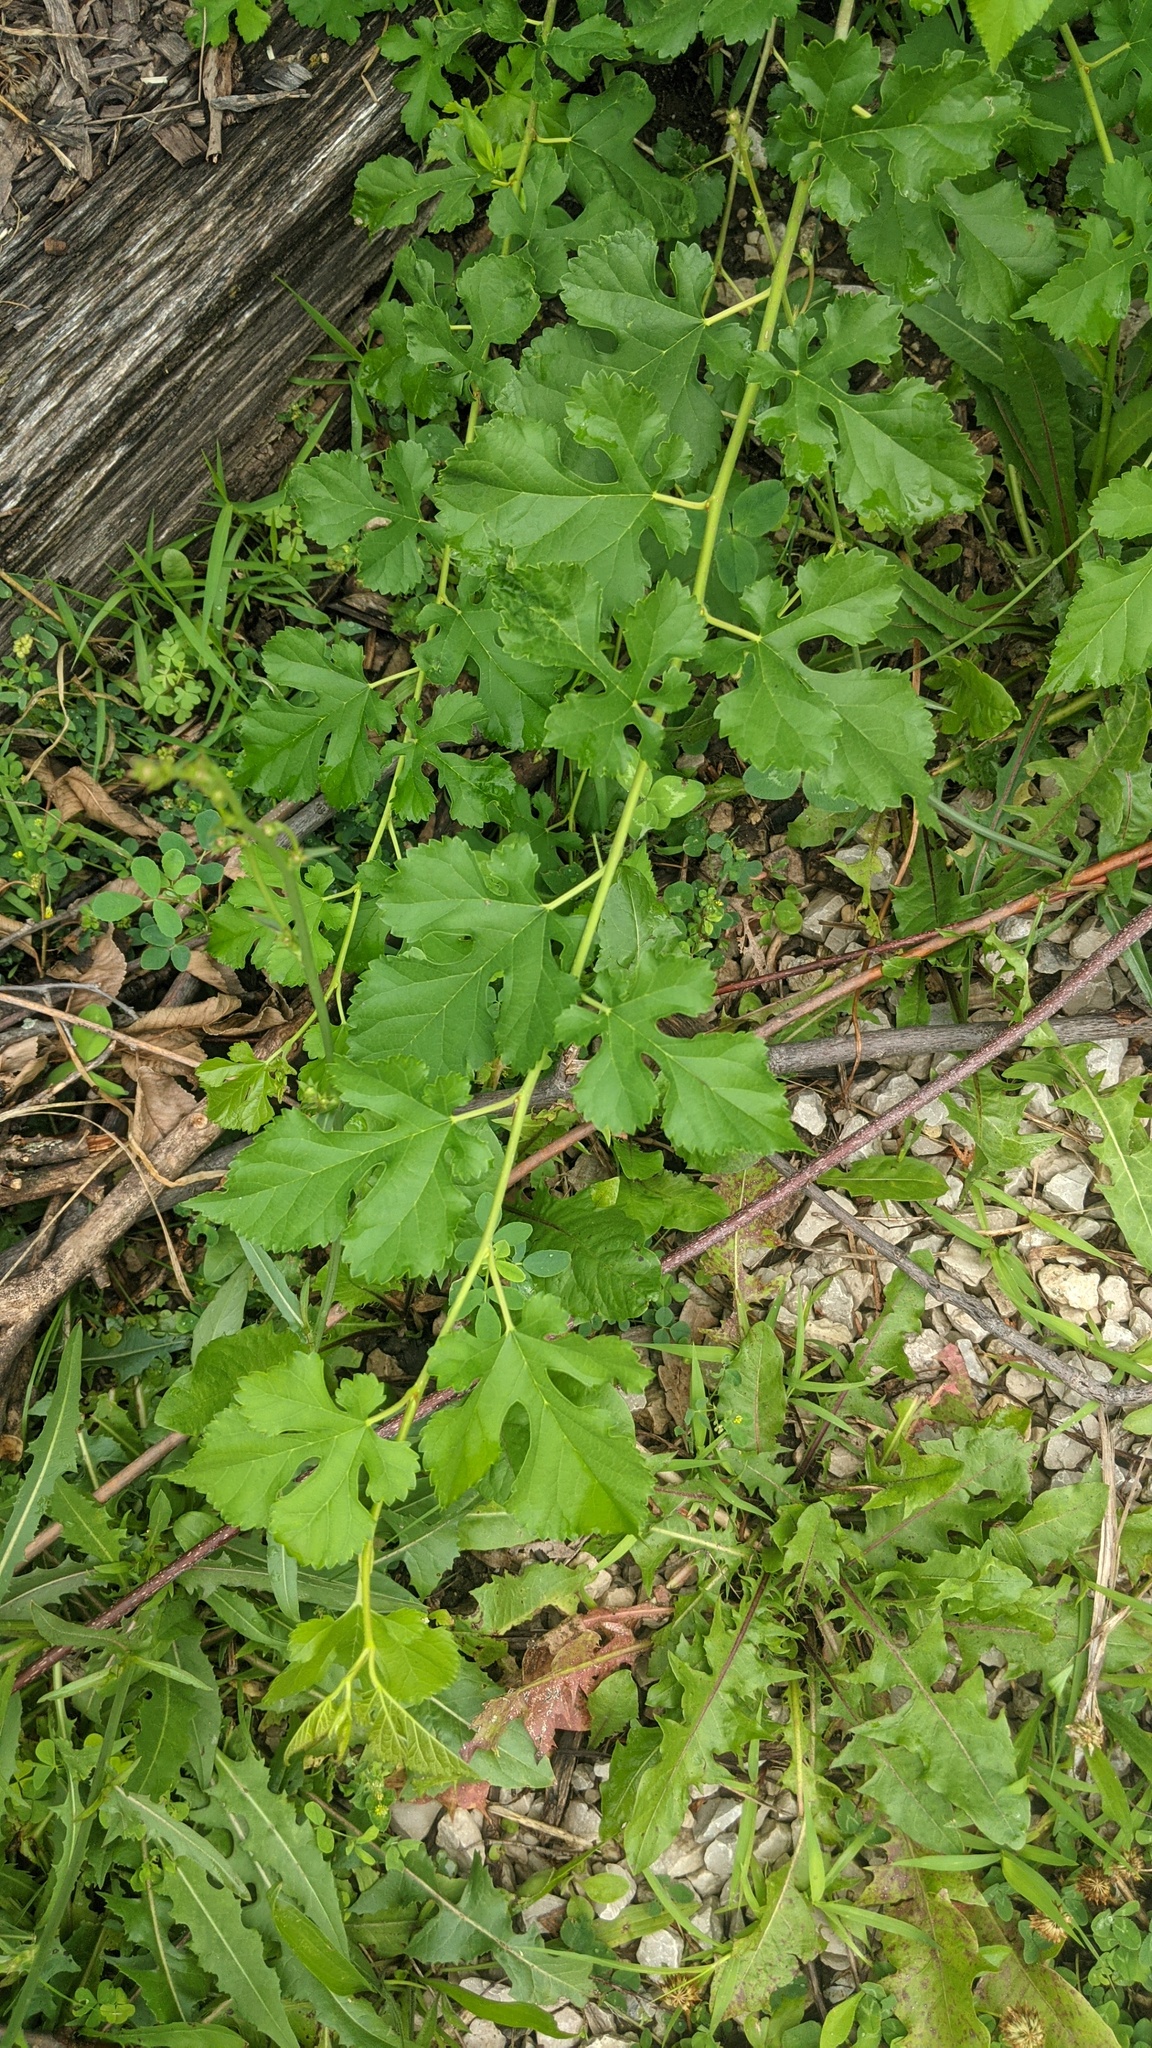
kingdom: Plantae
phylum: Tracheophyta
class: Magnoliopsida
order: Rosales
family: Moraceae
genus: Morus
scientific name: Morus alba
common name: White mulberry
